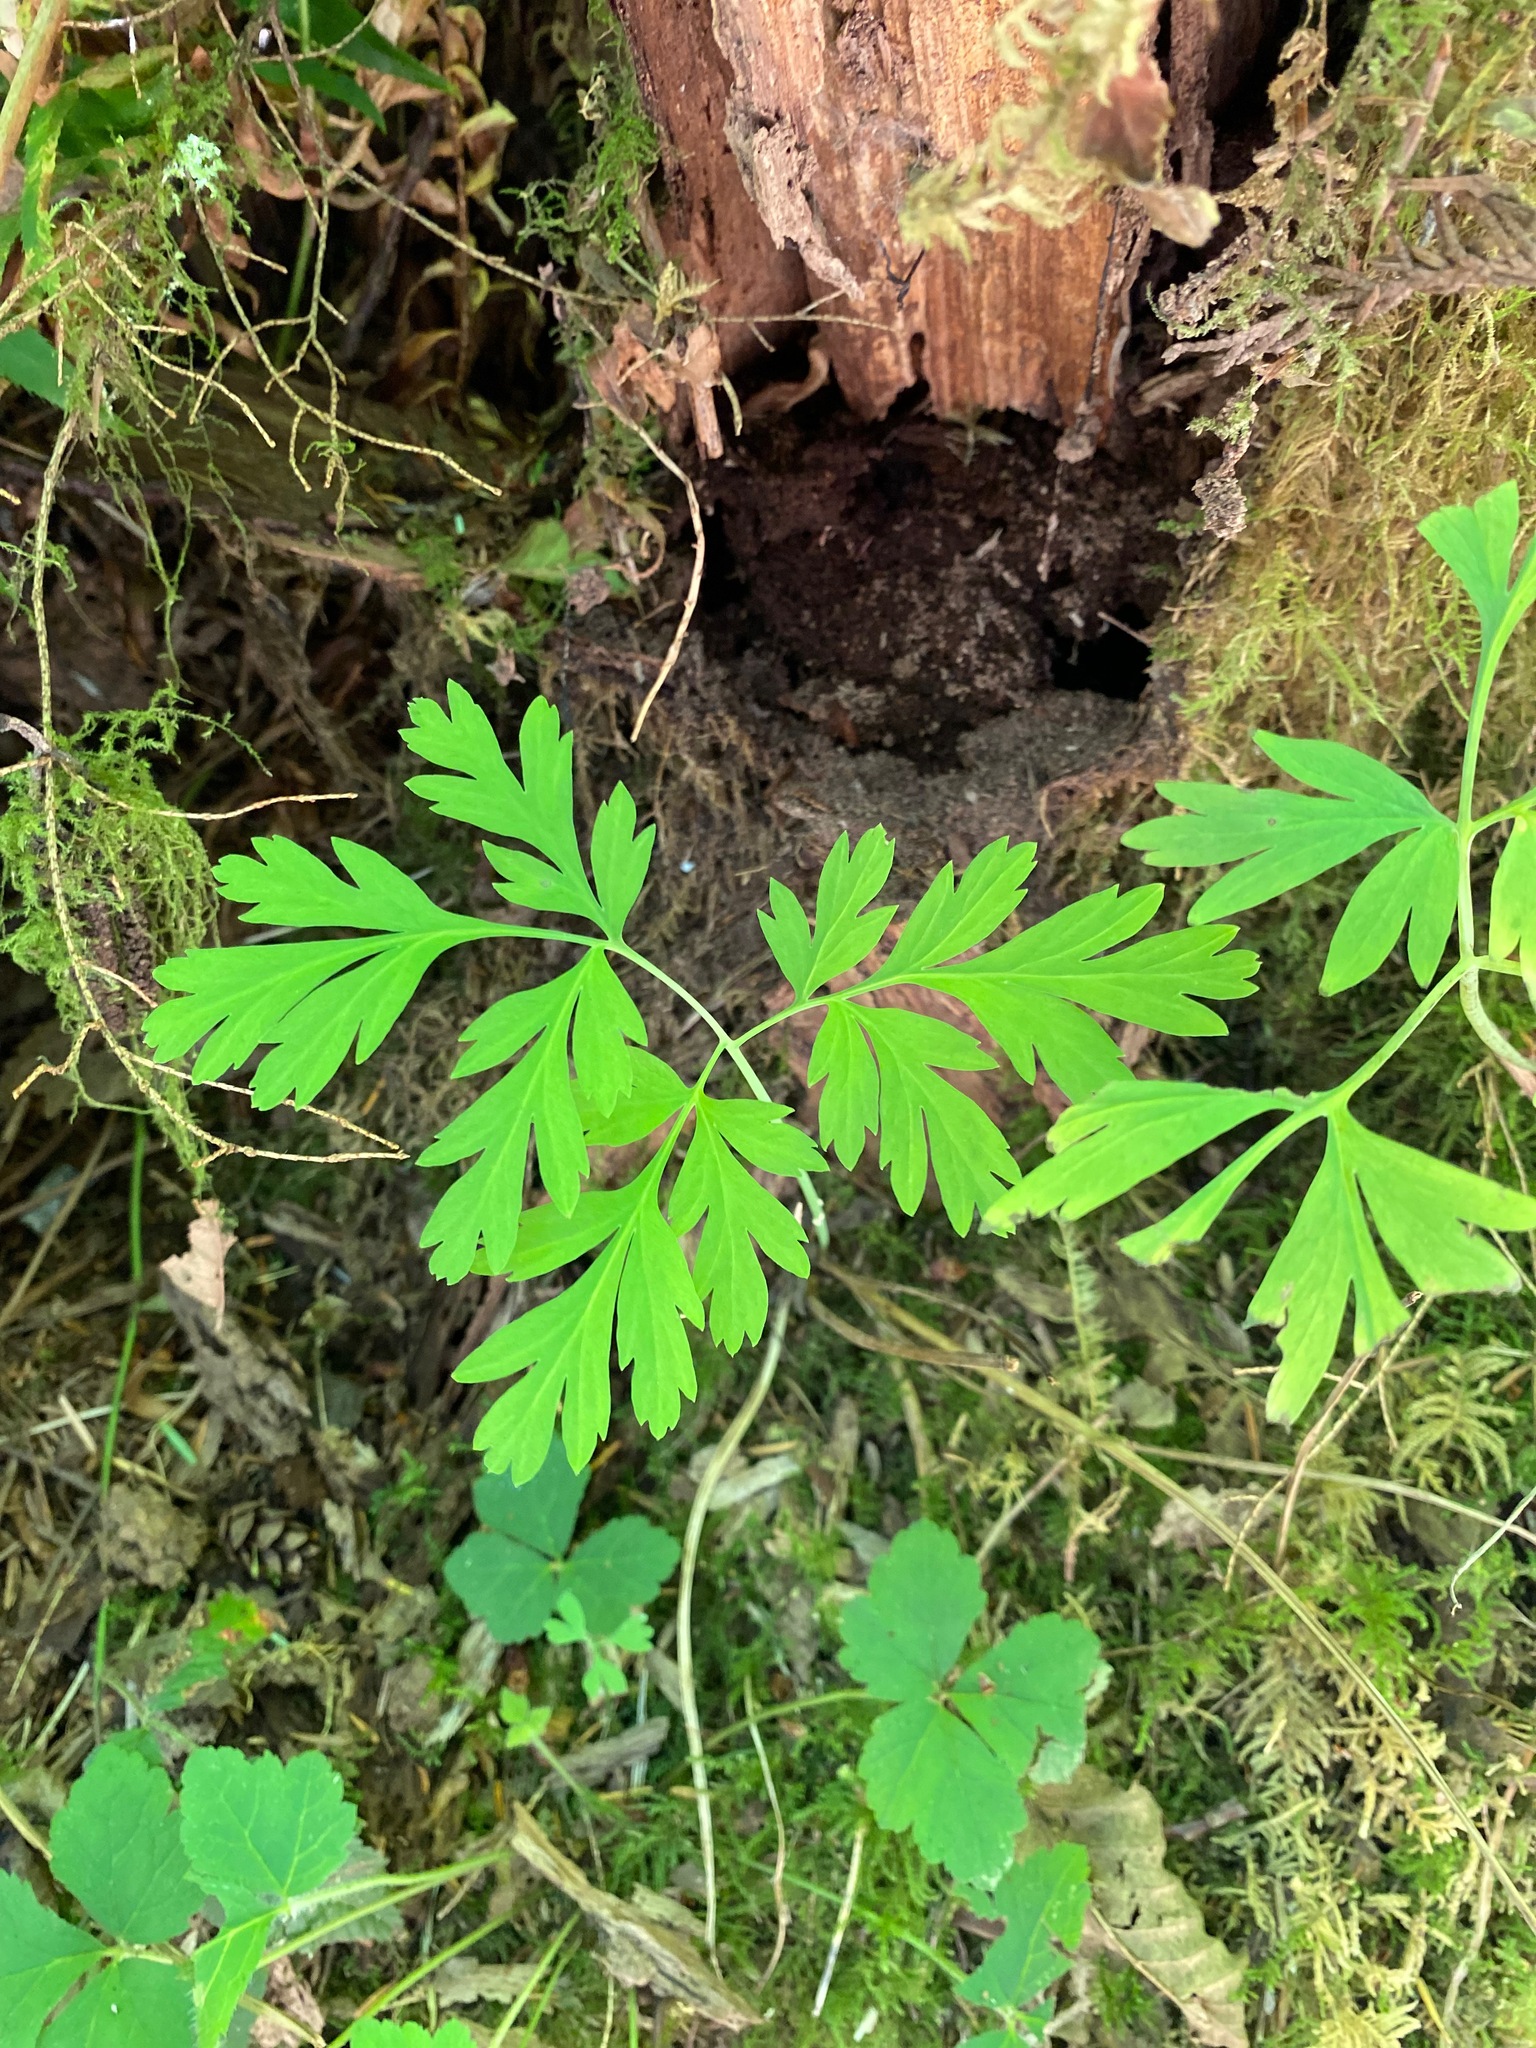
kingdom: Plantae
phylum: Tracheophyta
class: Magnoliopsida
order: Ranunculales
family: Papaveraceae
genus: Dicentra
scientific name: Dicentra formosa
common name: Bleeding-heart
